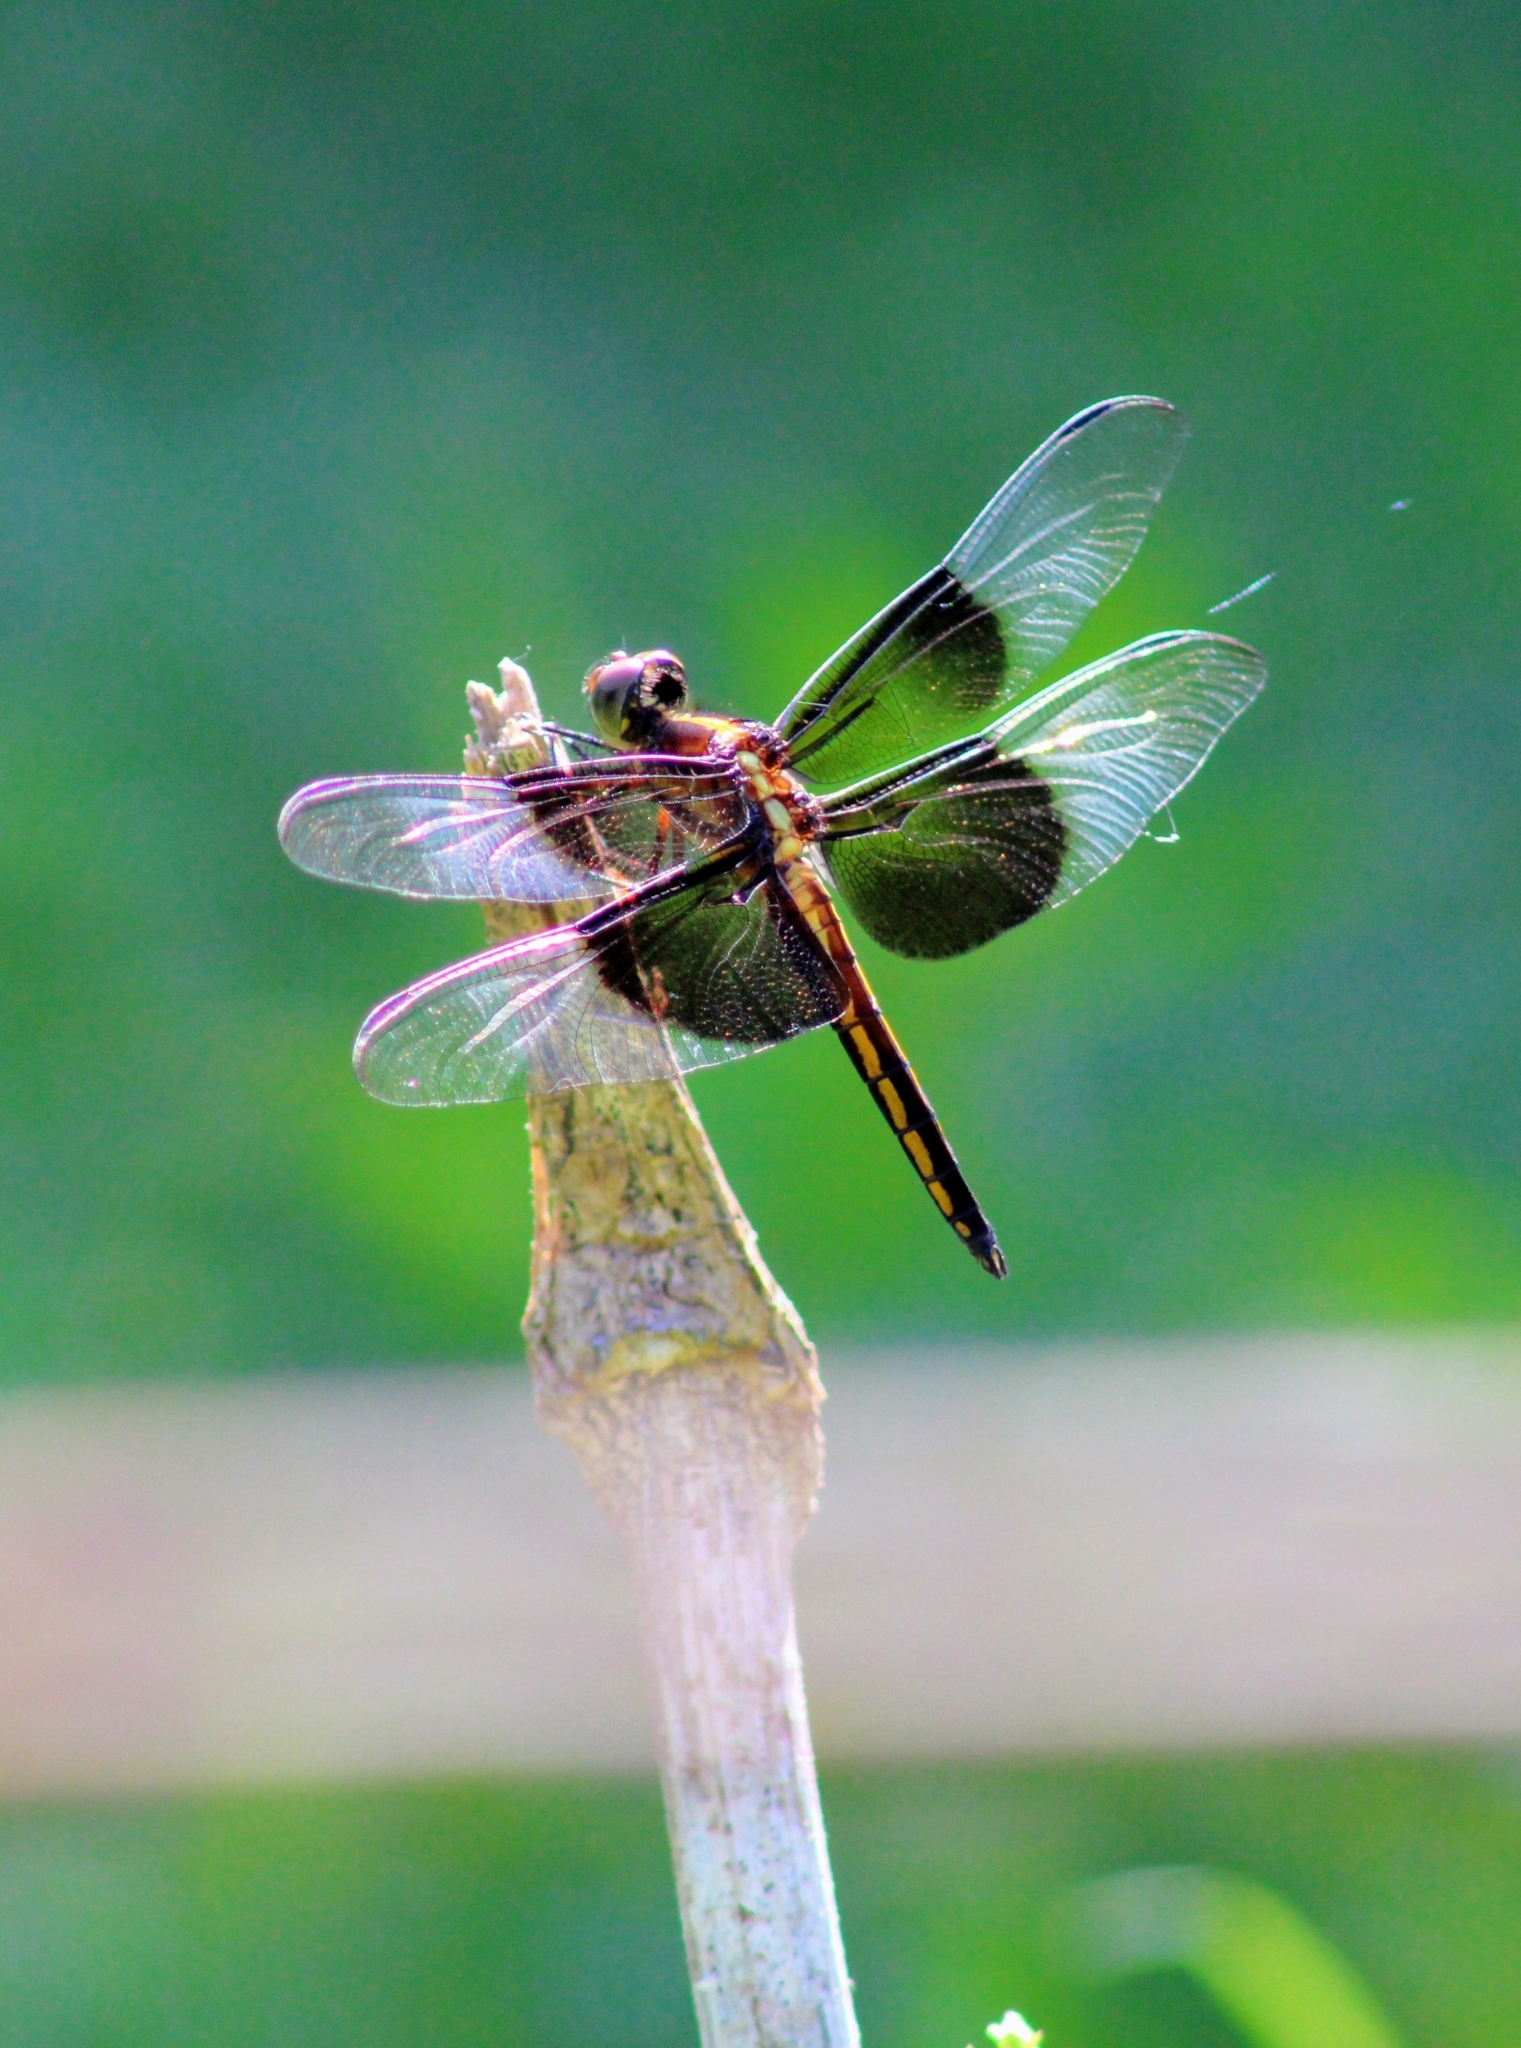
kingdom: Animalia
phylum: Arthropoda
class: Insecta
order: Odonata
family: Libellulidae
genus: Libellula
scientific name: Libellula luctuosa
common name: Widow skimmer
